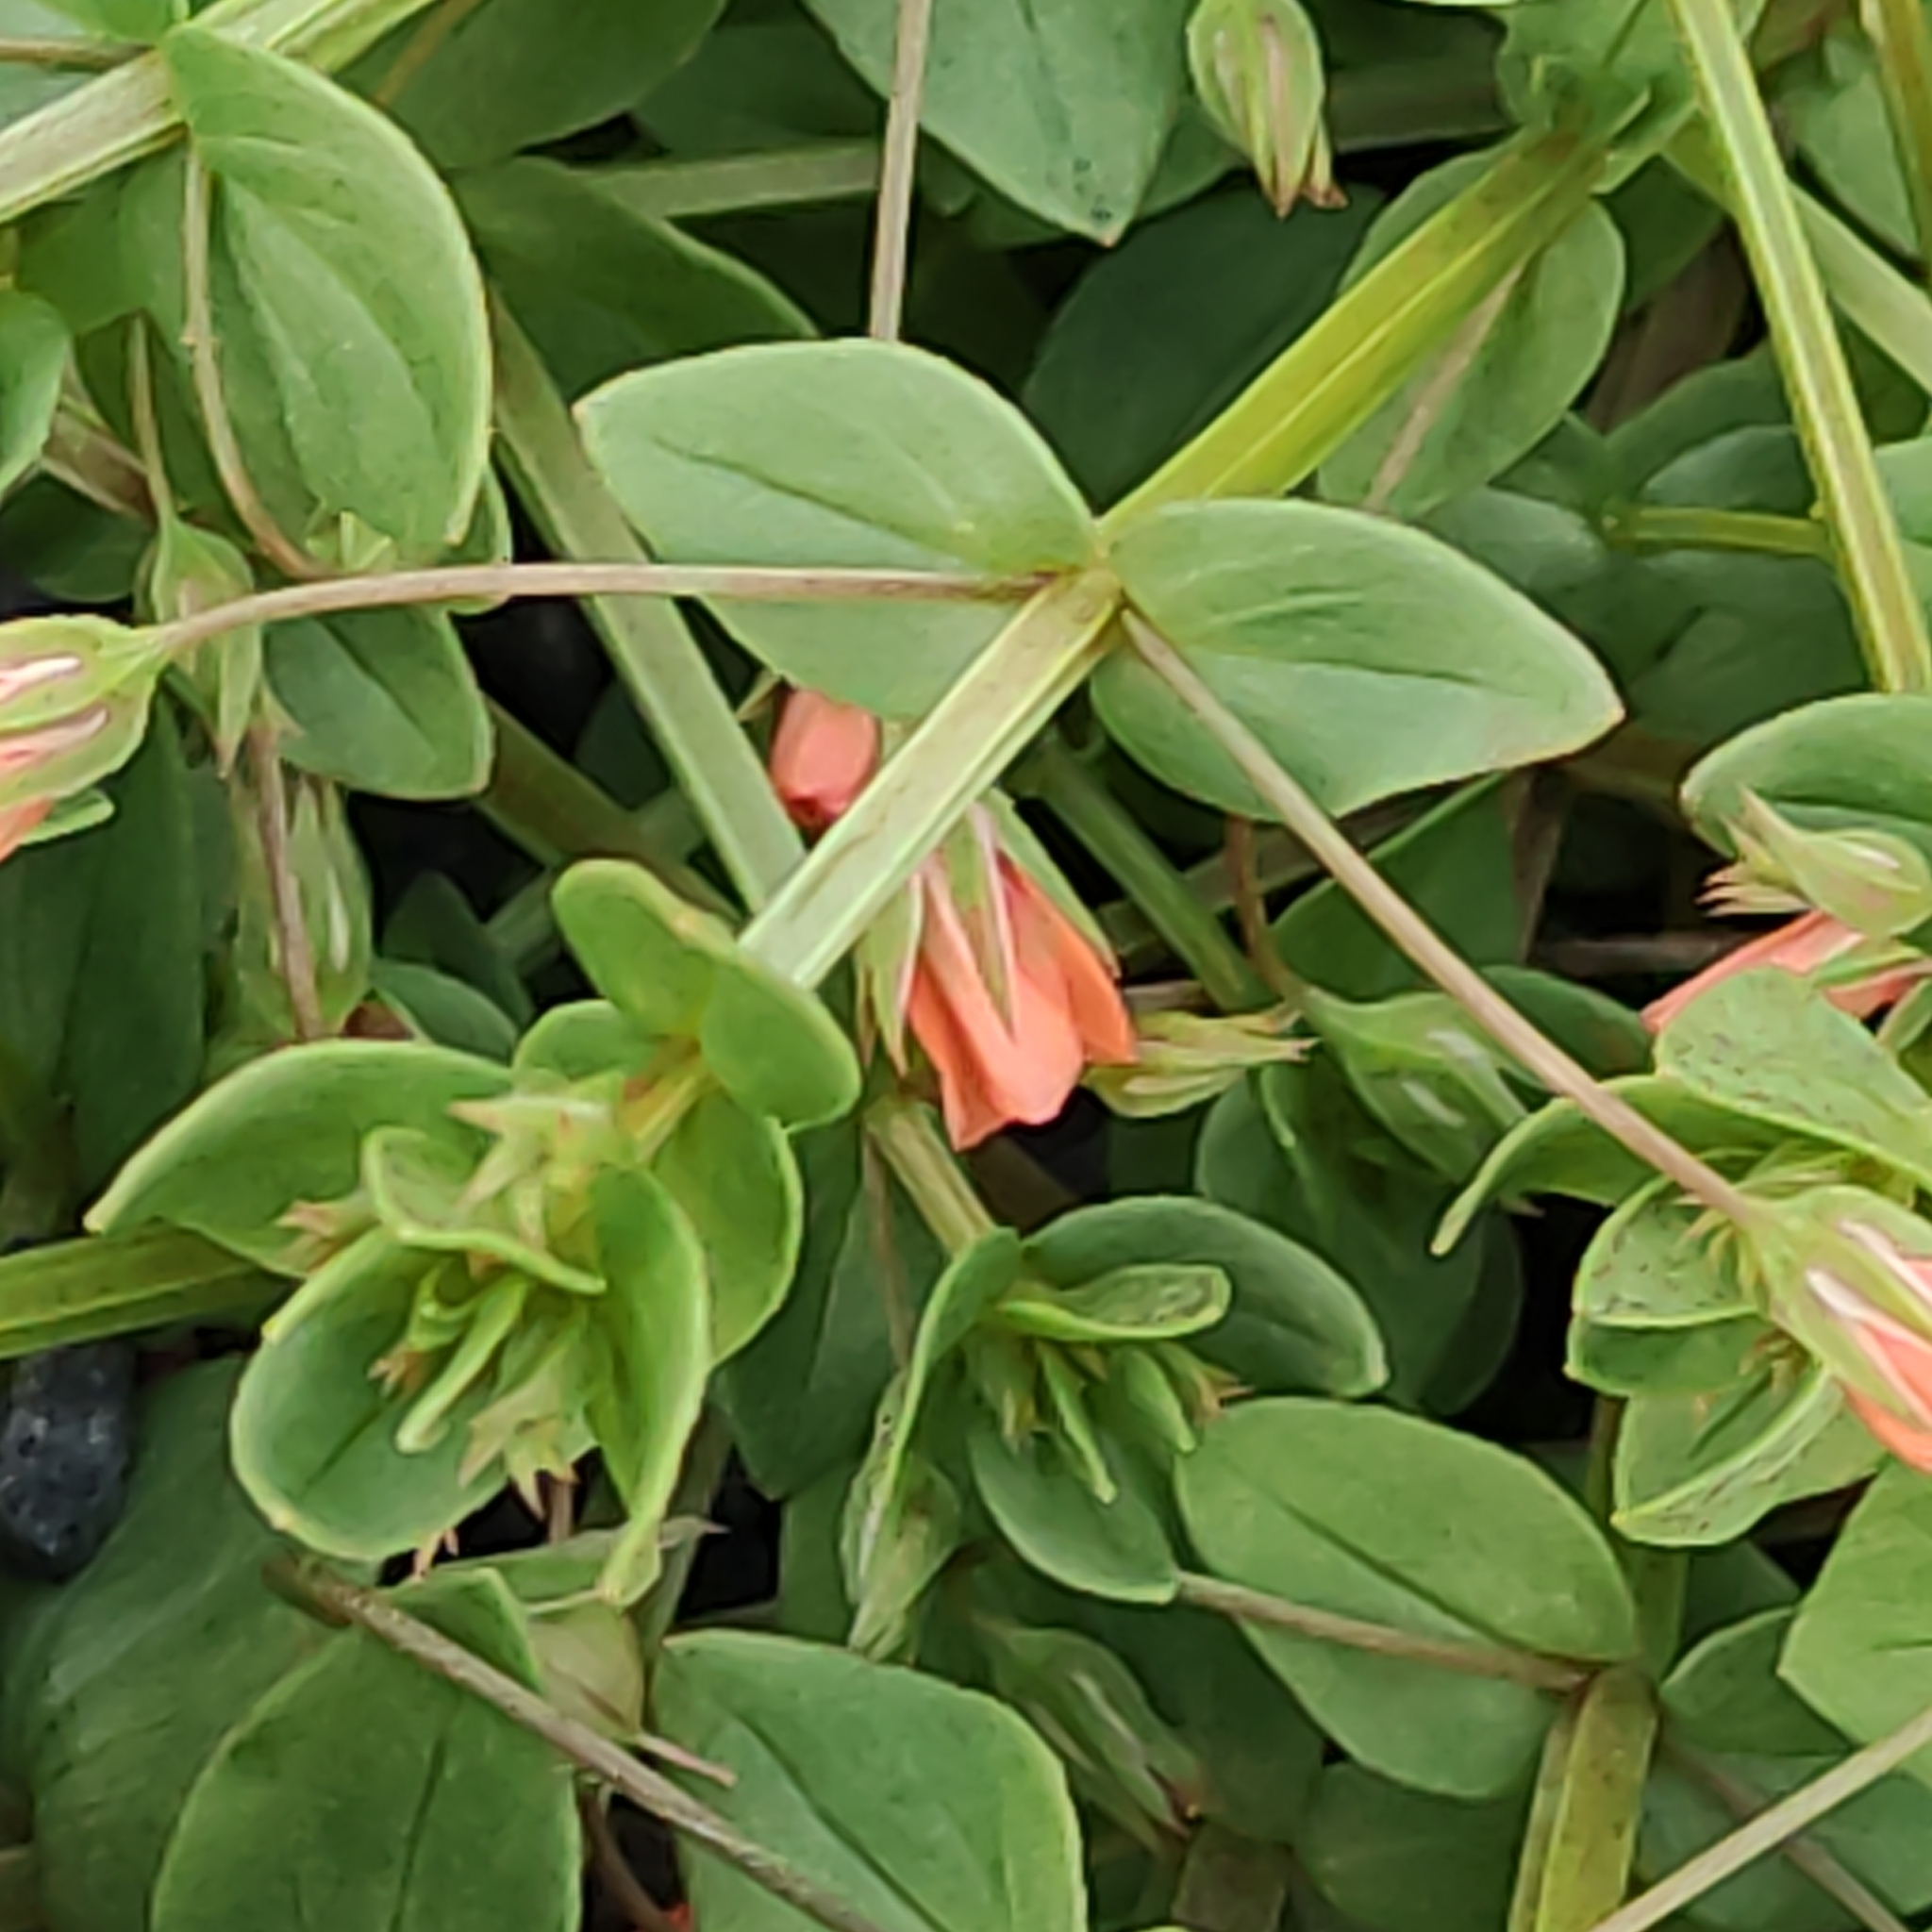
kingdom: Plantae
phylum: Tracheophyta
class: Magnoliopsida
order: Ericales
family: Primulaceae
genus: Lysimachia
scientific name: Lysimachia arvensis
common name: Scarlet pimpernel
